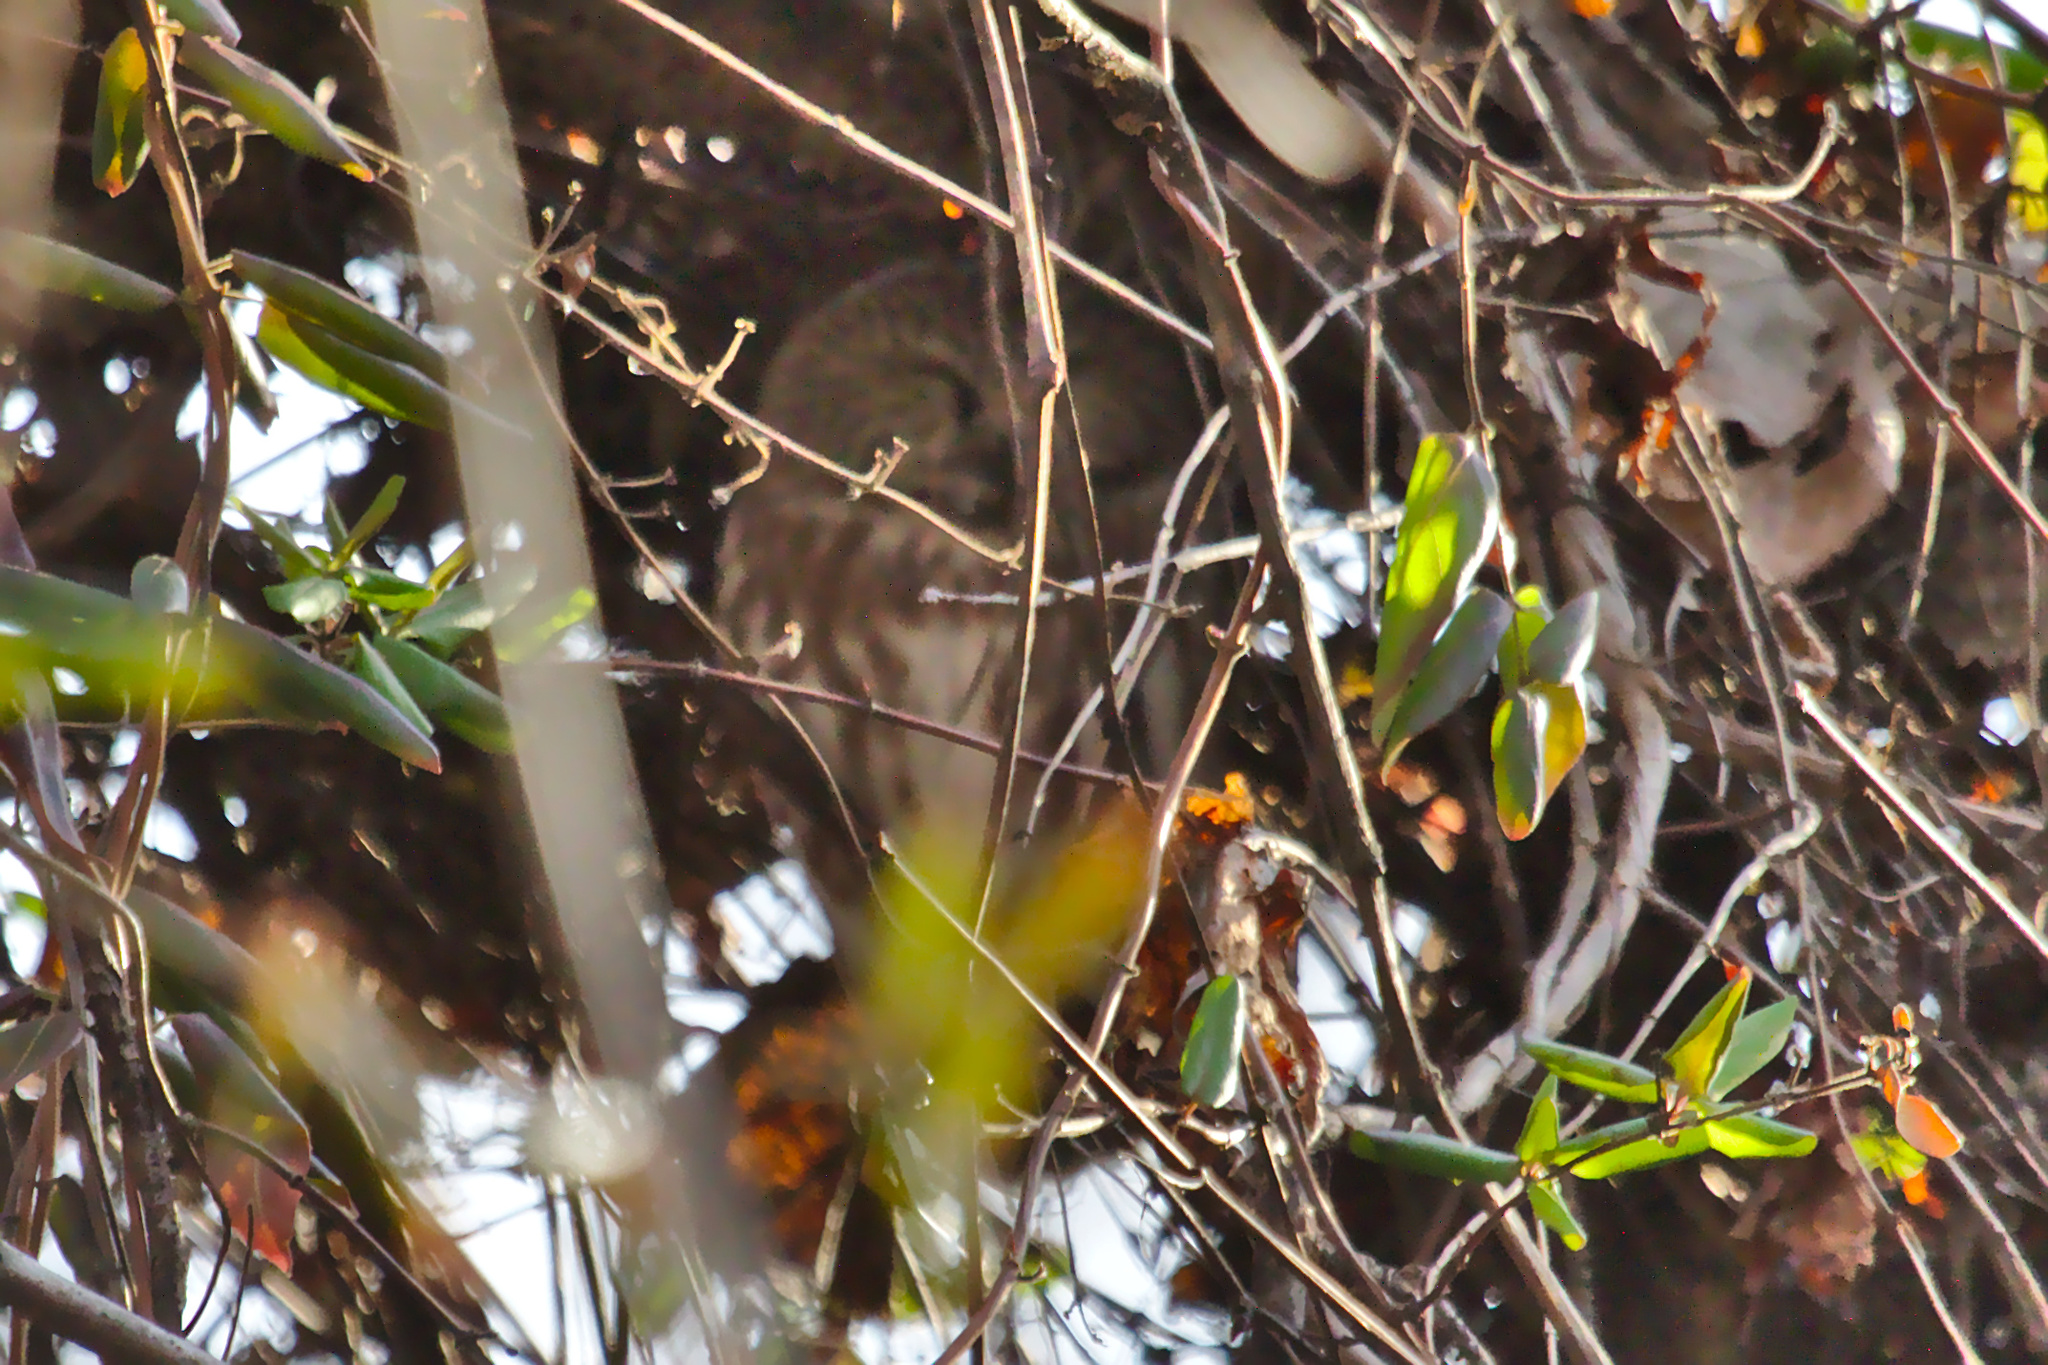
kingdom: Animalia
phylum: Chordata
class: Aves
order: Strigiformes
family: Strigidae
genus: Aegolius
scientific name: Aegolius acadicus
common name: Northern saw-whet owl
